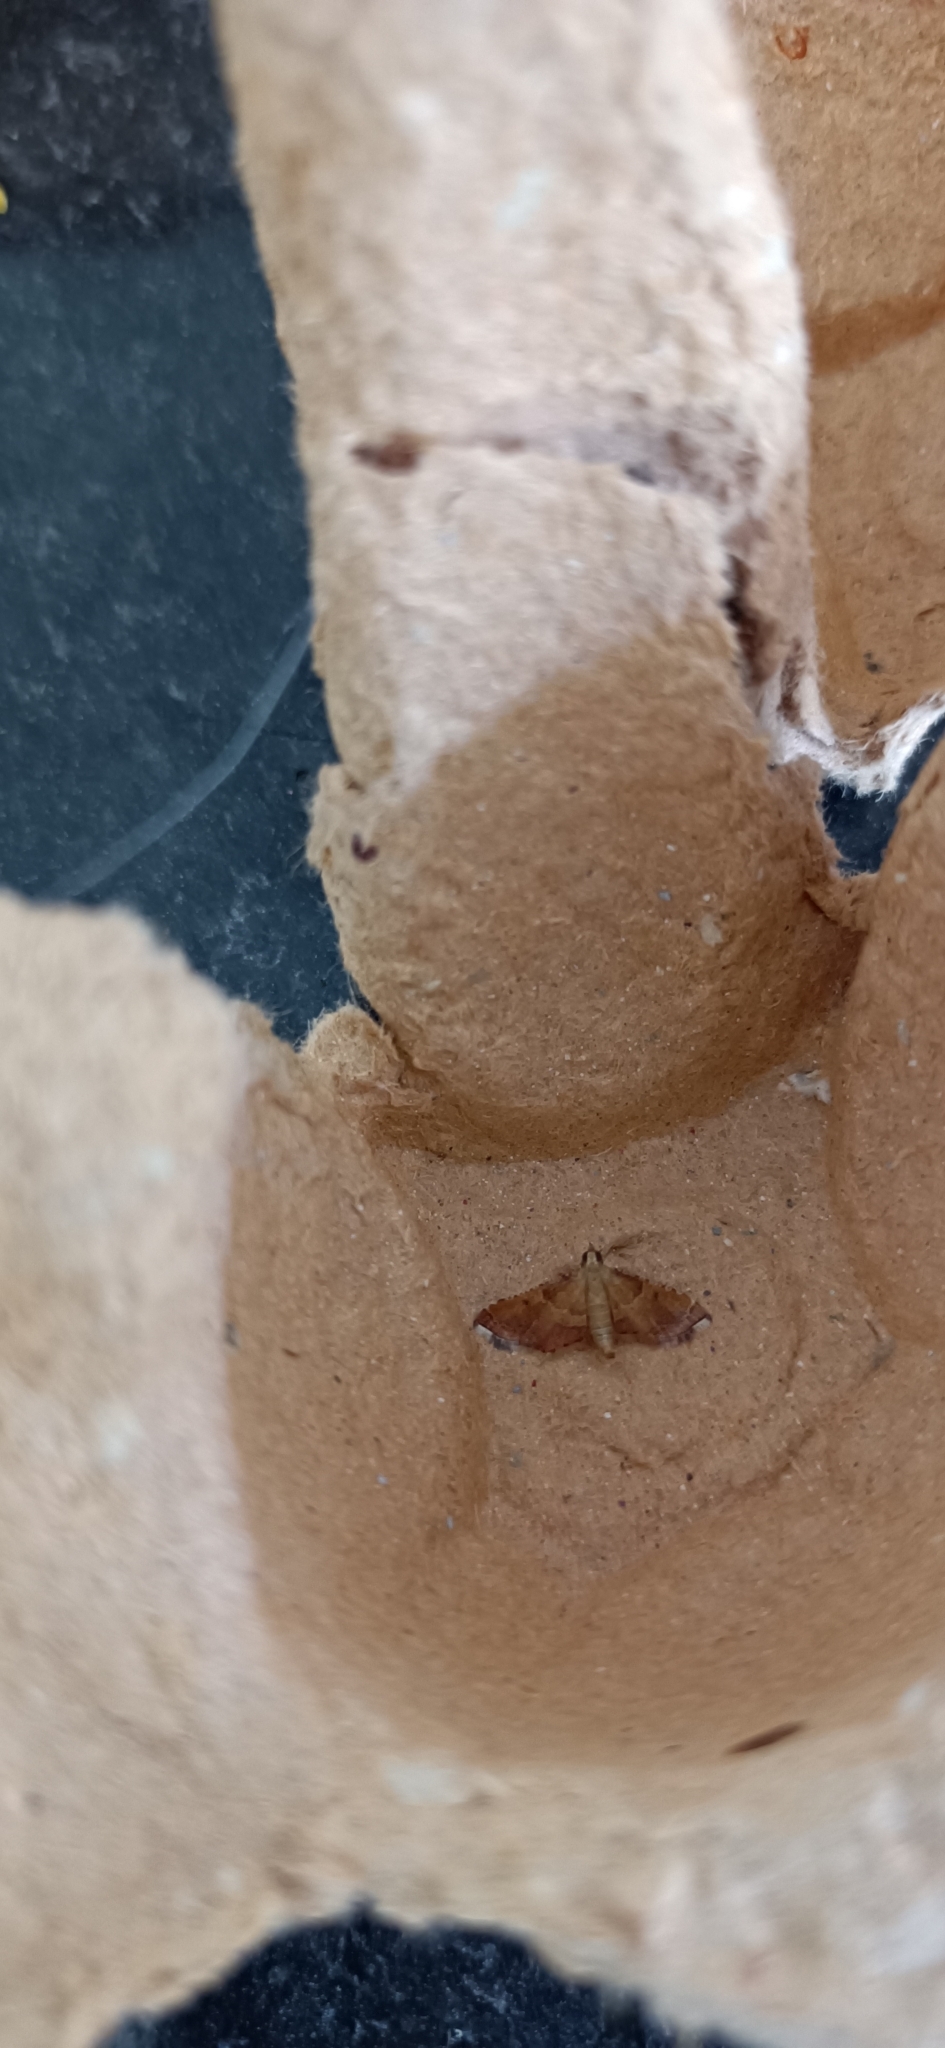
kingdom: Animalia
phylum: Arthropoda
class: Insecta
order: Lepidoptera
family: Pyralidae
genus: Endotricha
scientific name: Endotricha flammealis
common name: Rosy tabby
